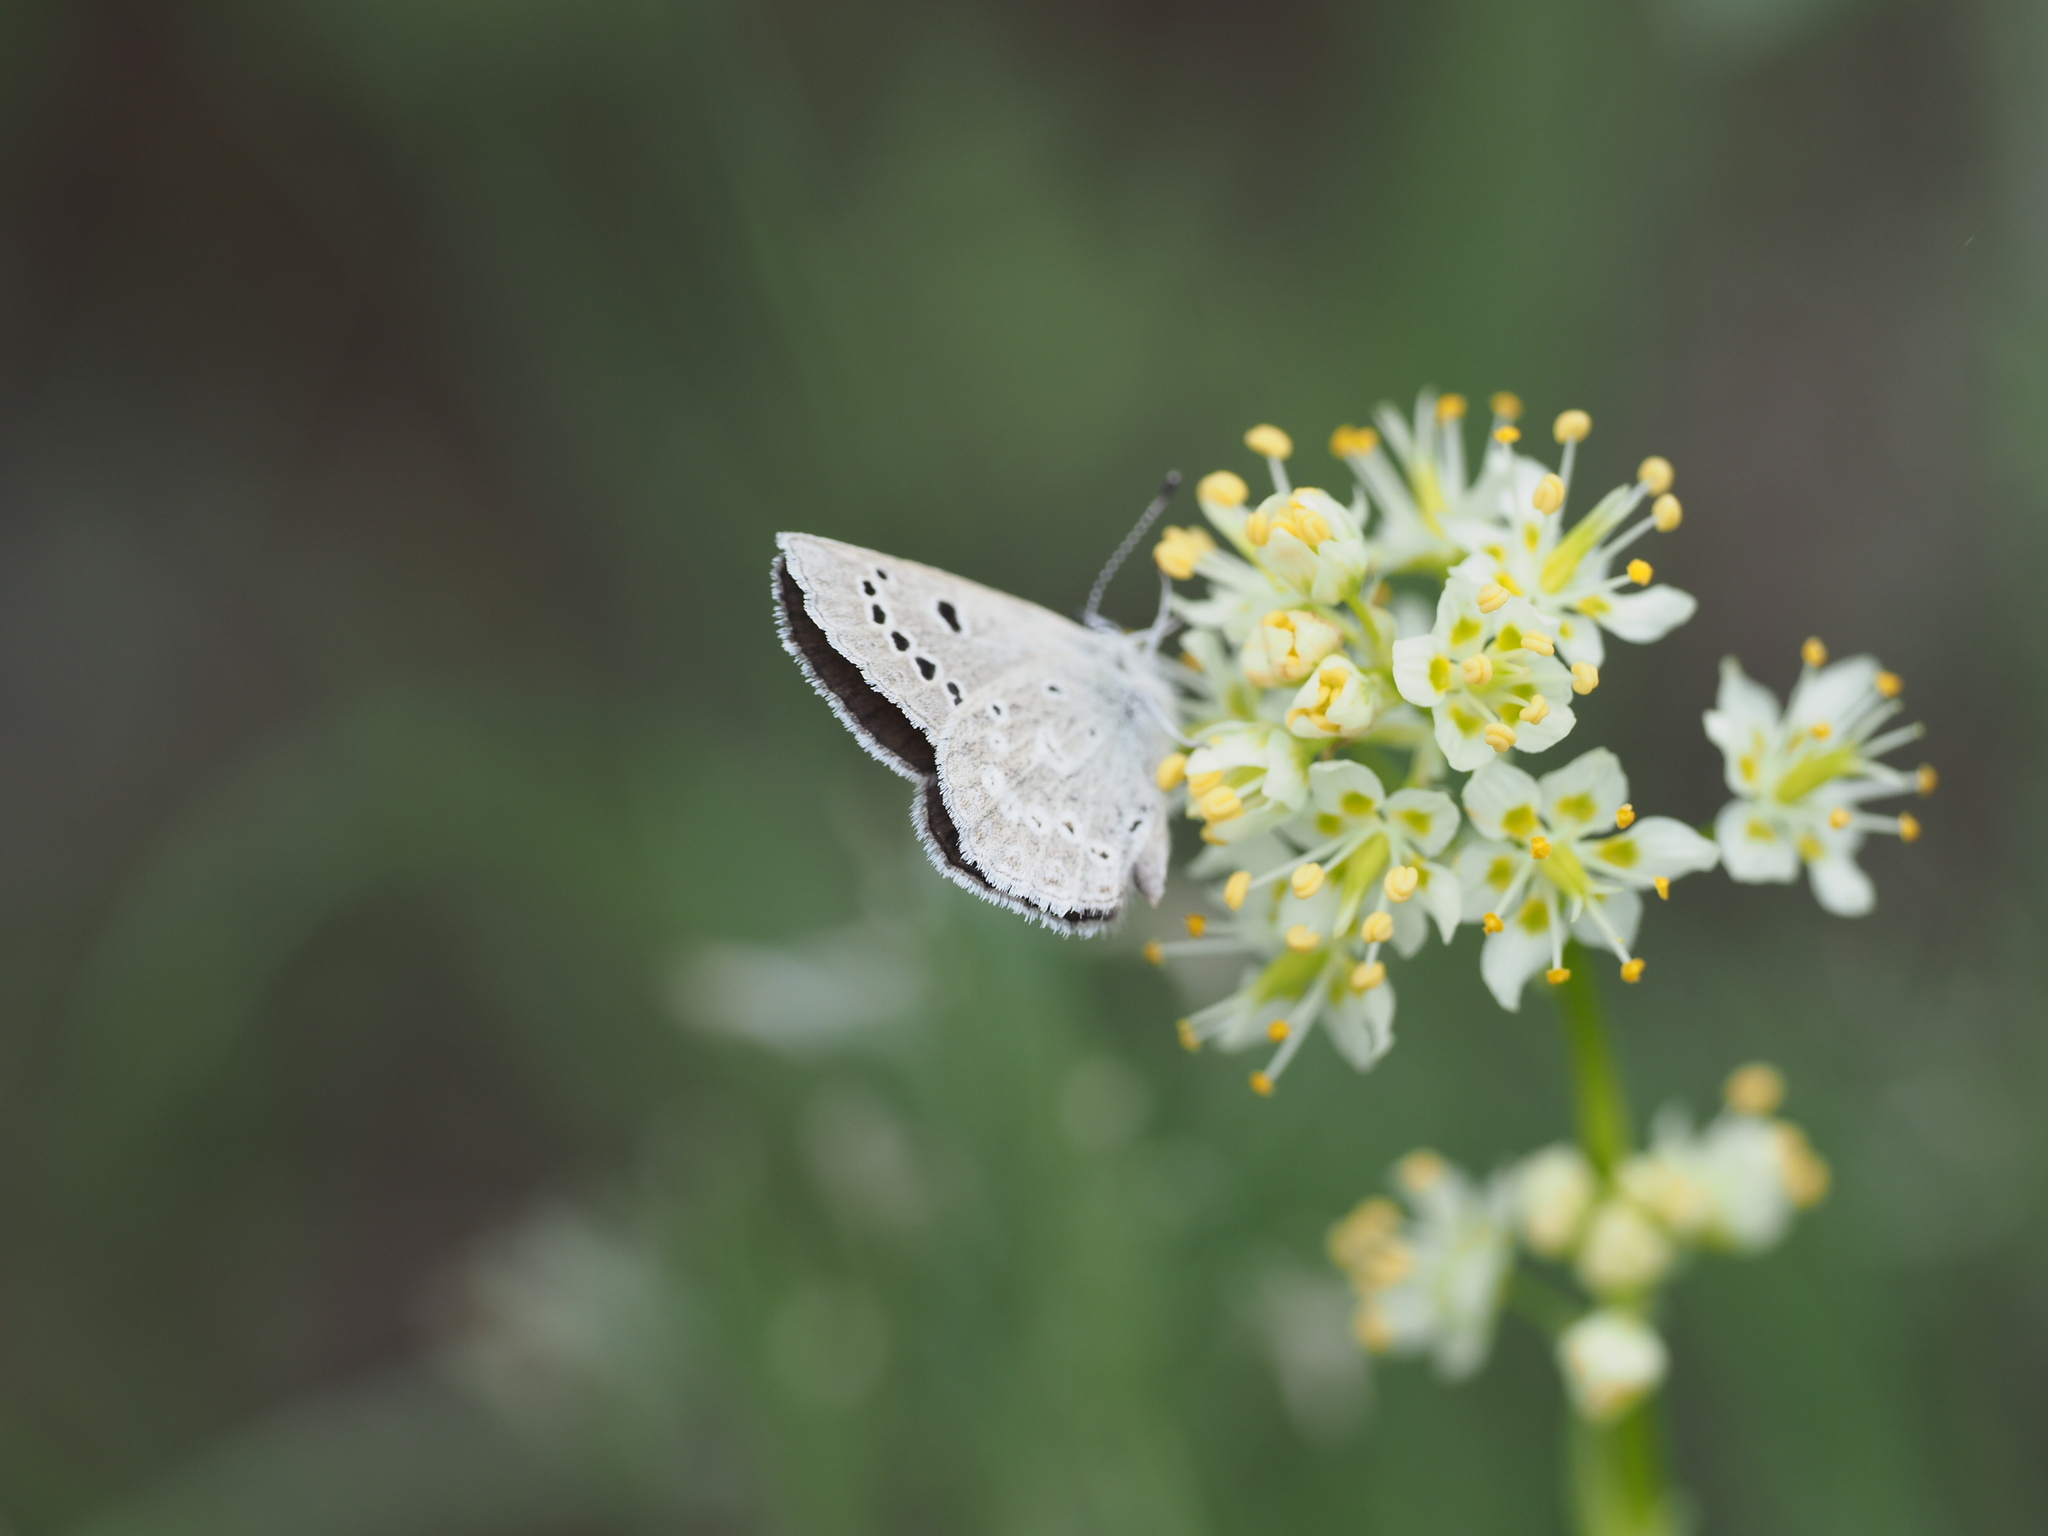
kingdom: Animalia
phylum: Arthropoda
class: Insecta
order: Lepidoptera
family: Lycaenidae
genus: Icaricia
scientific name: Icaricia icarioides
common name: Boisduval's blue
